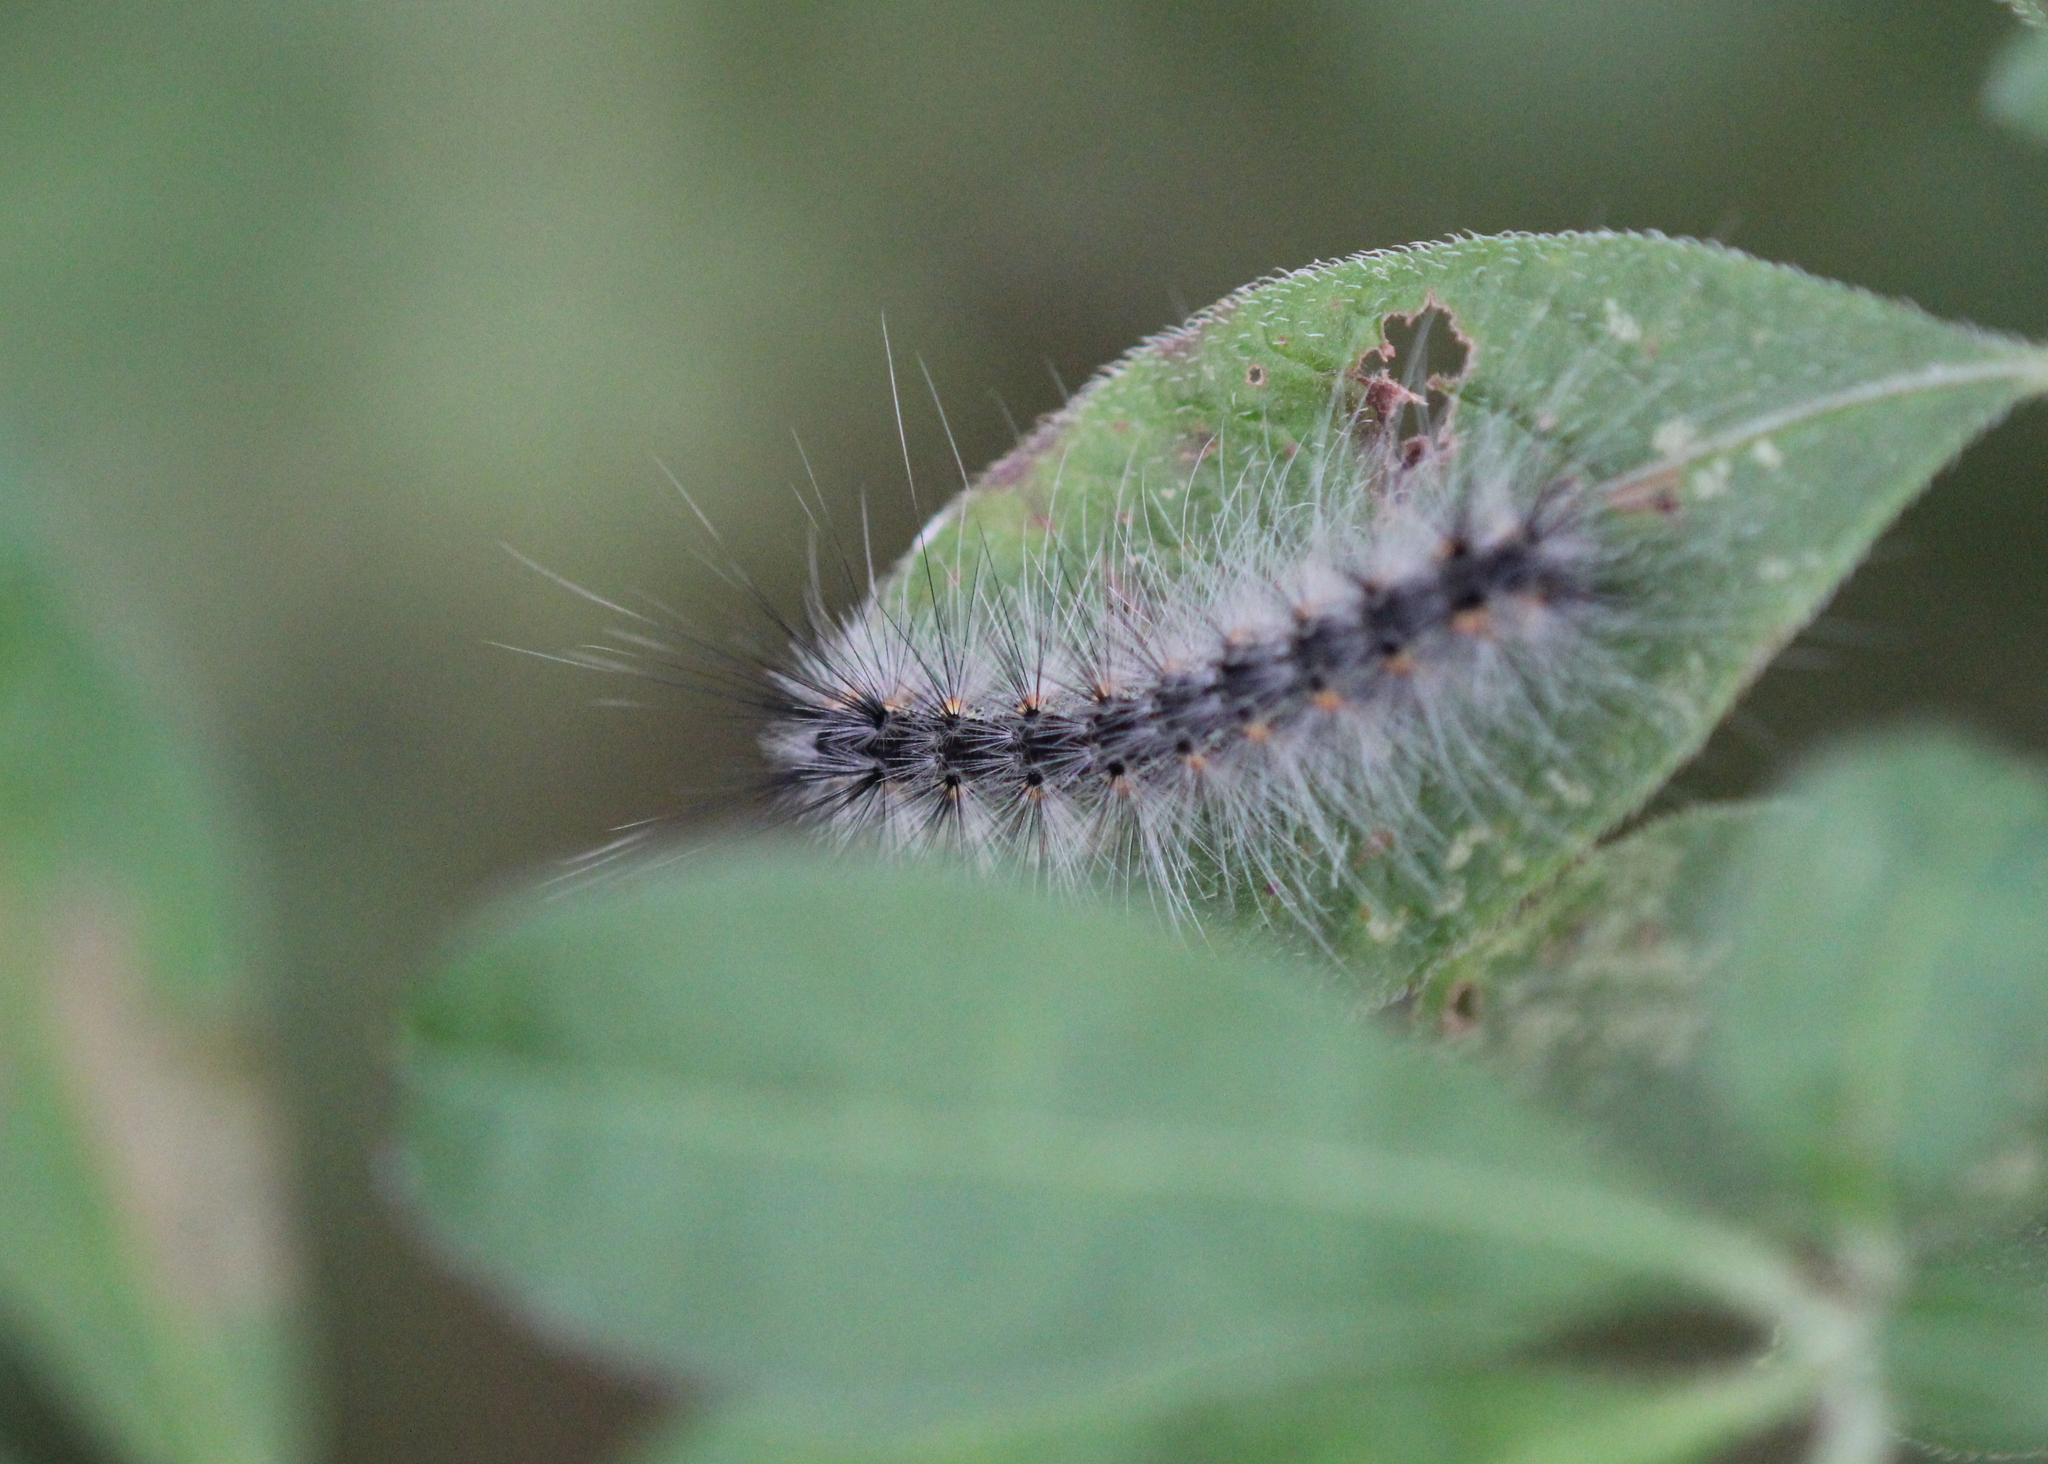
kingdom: Animalia
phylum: Arthropoda
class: Insecta
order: Lepidoptera
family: Erebidae
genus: Hyphantria
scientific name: Hyphantria cunea
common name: American white moth
